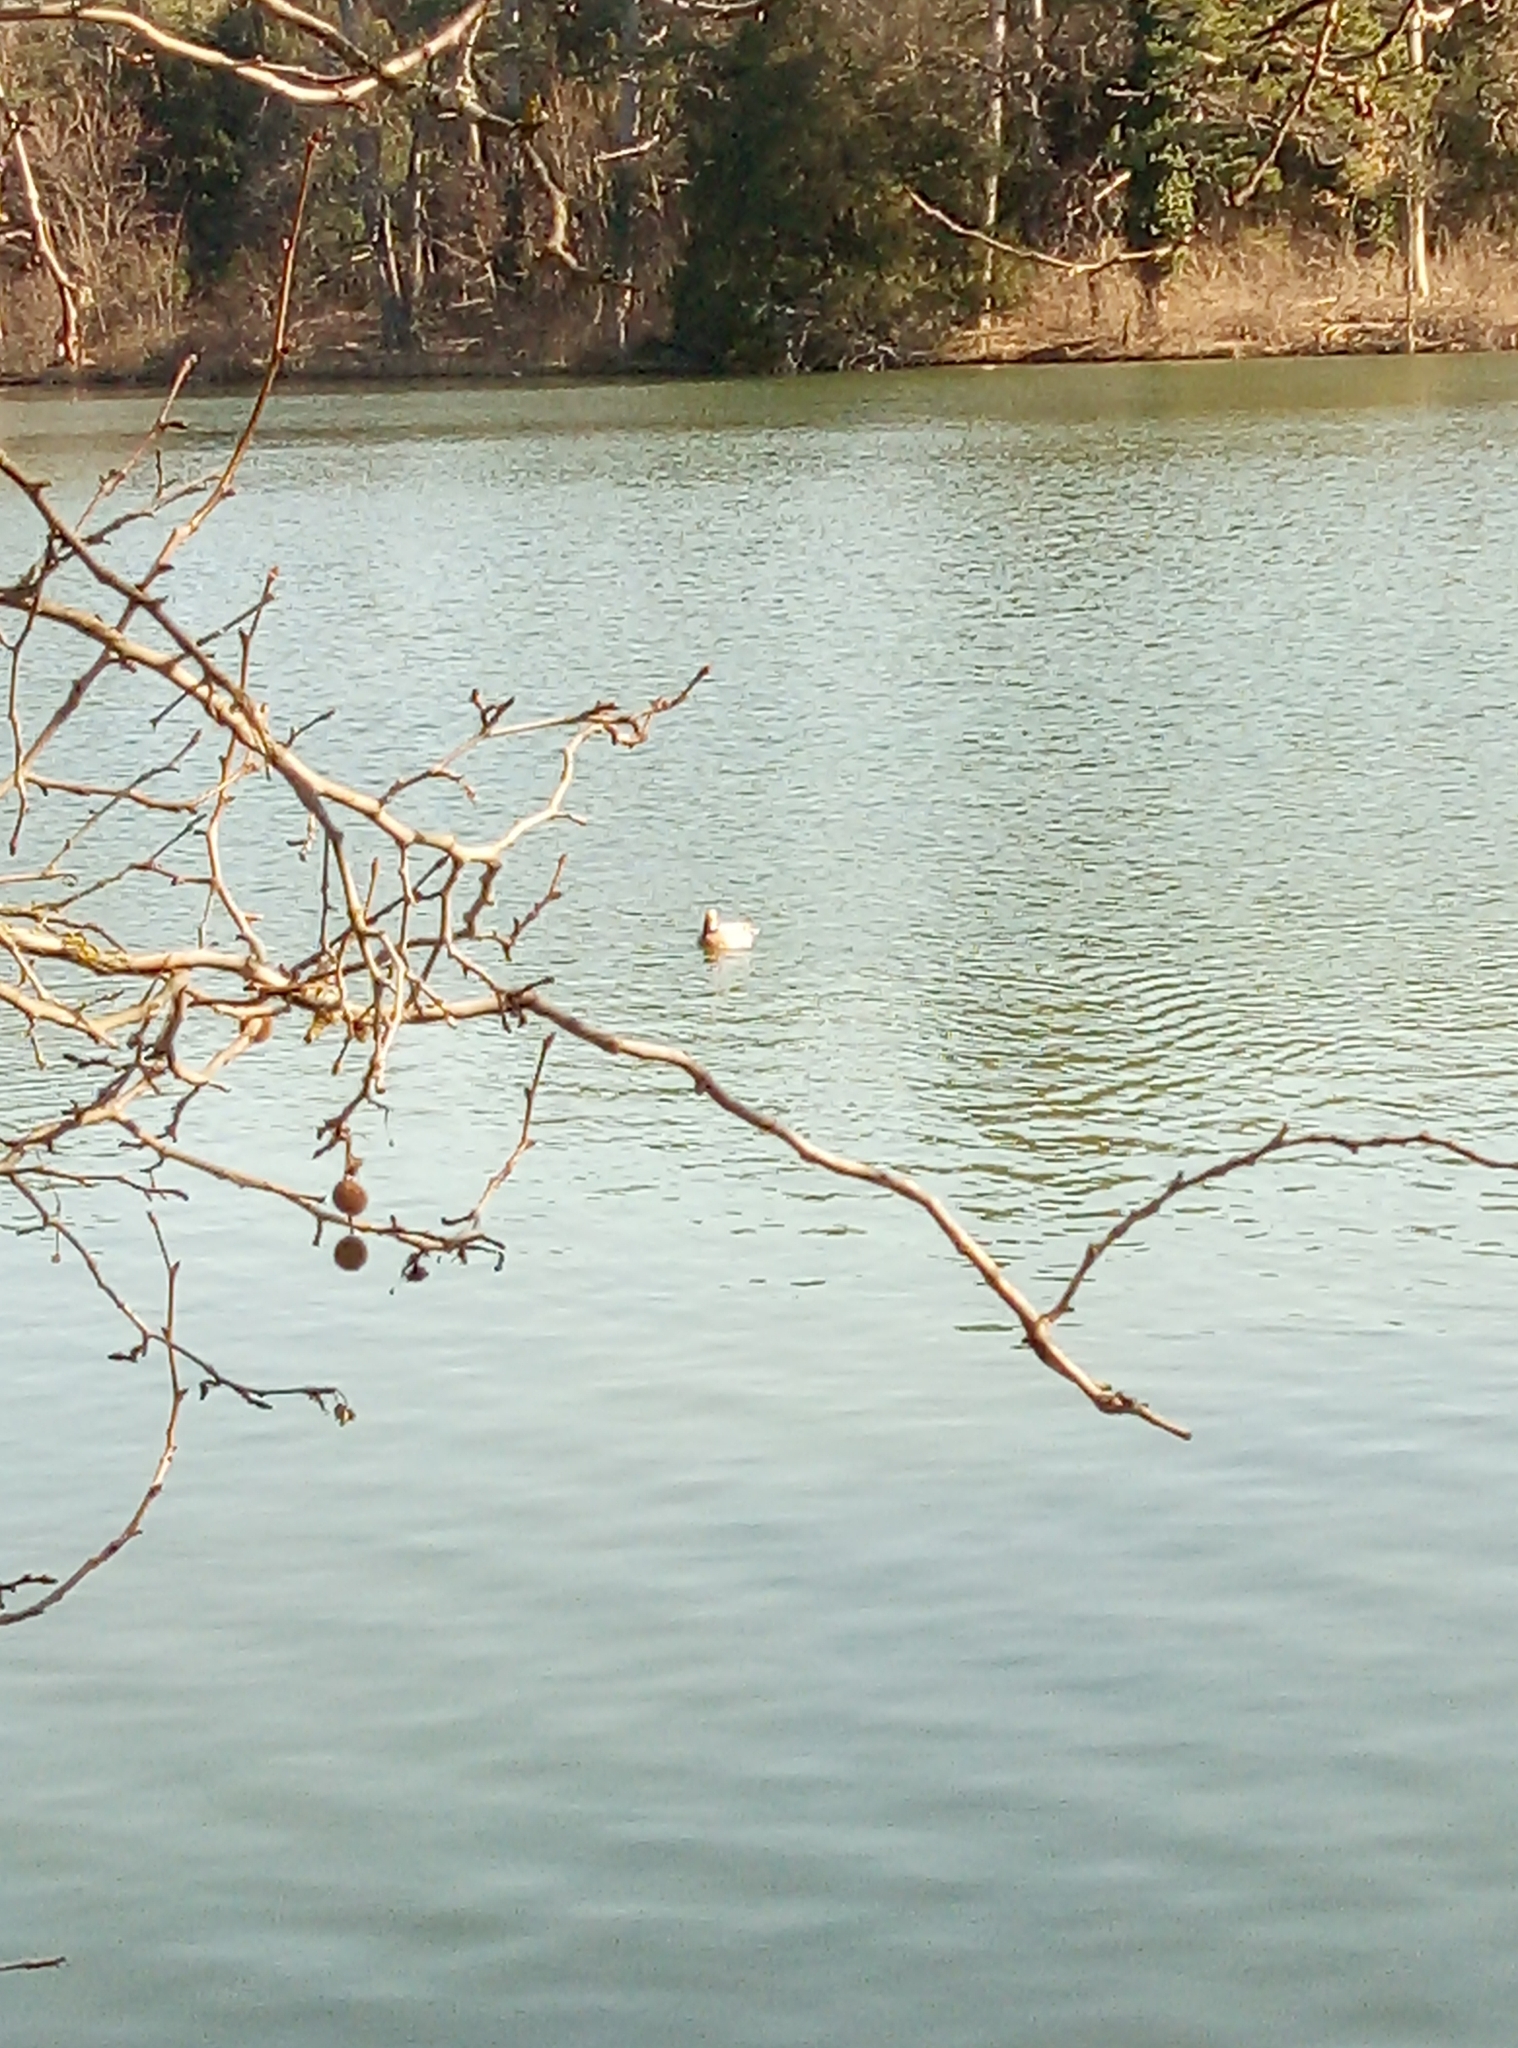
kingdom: Animalia
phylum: Chordata
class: Aves
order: Anseriformes
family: Anatidae
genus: Mareca
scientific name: Mareca penelope
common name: Eurasian wigeon
